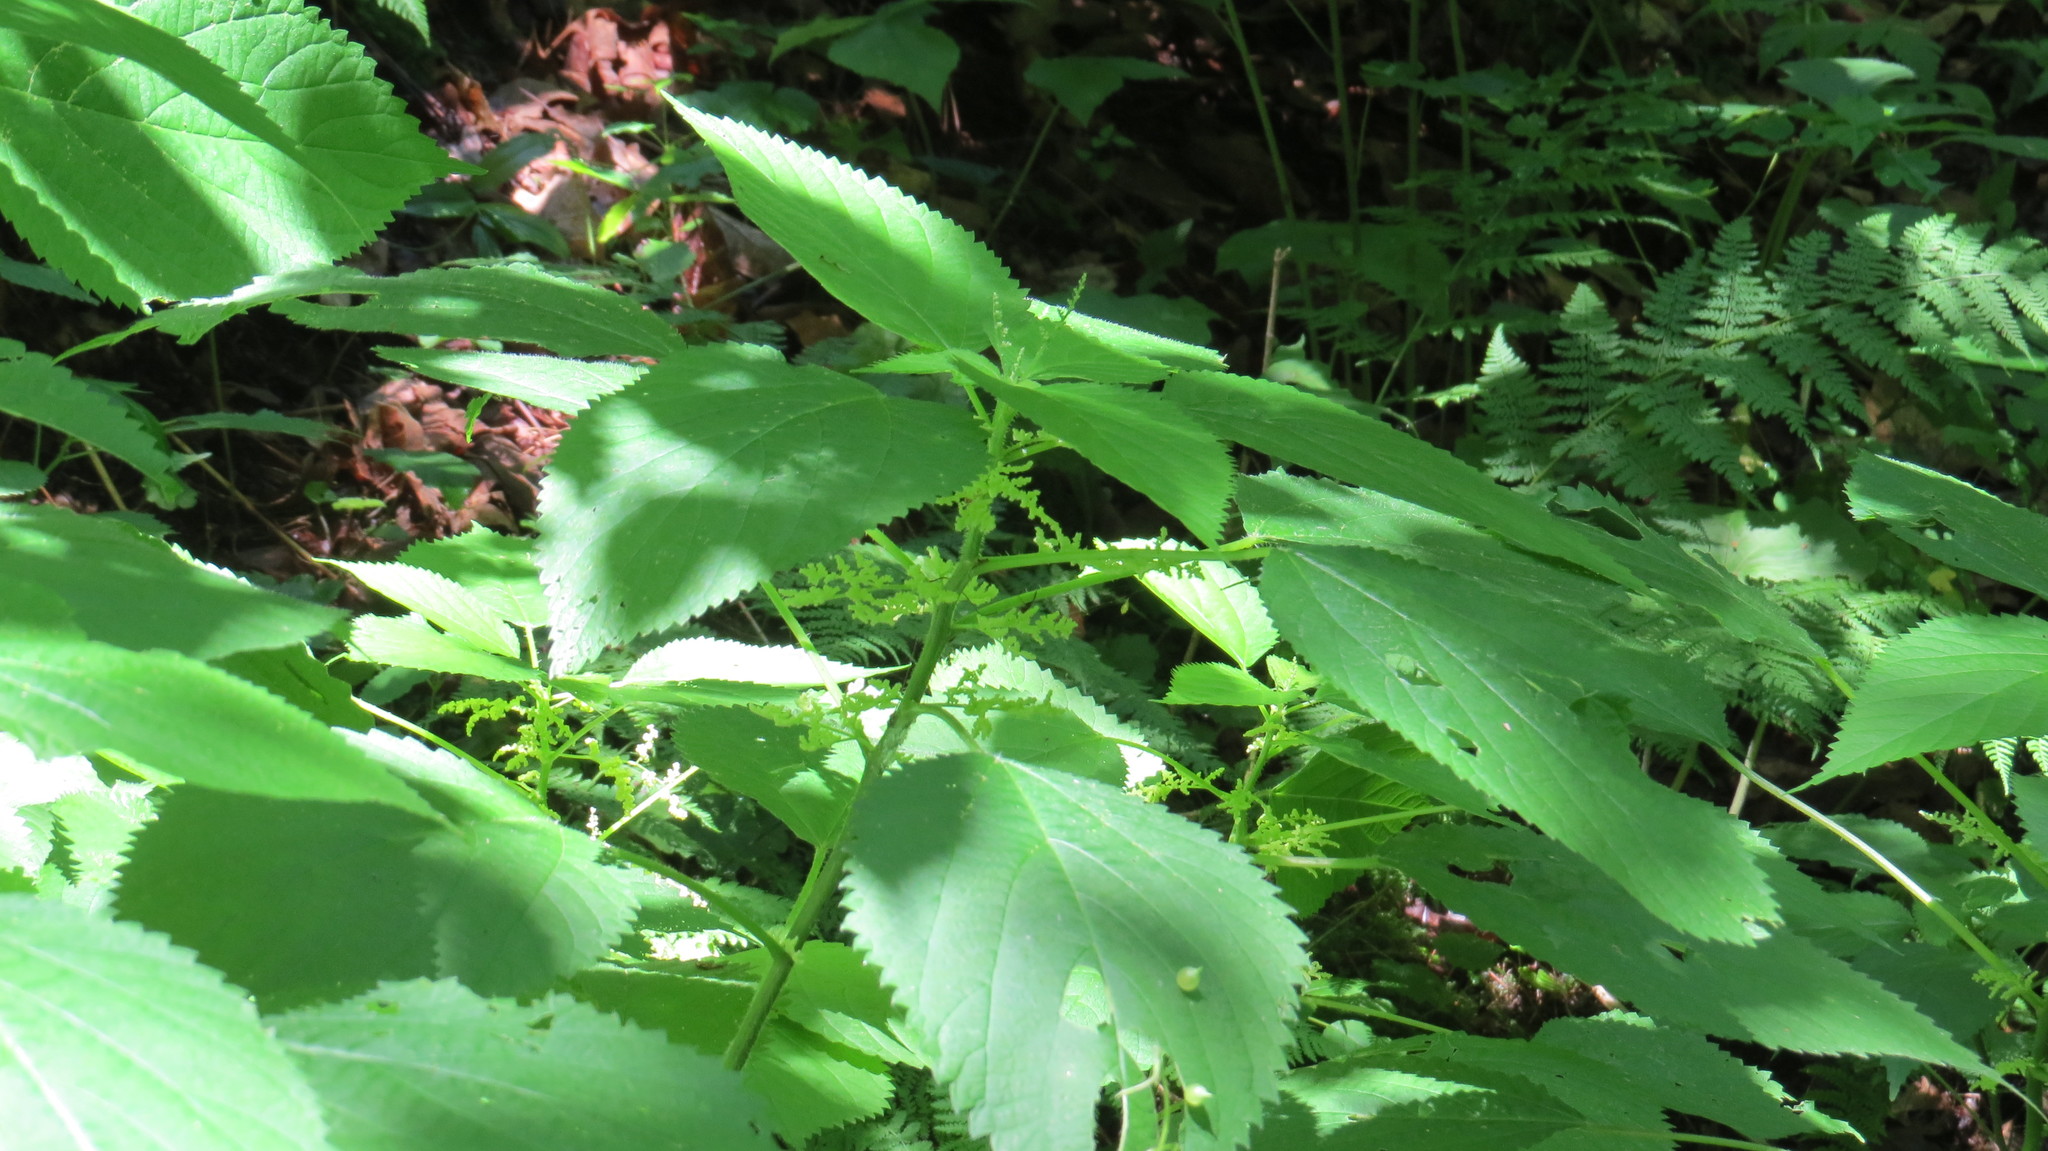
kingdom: Plantae
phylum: Tracheophyta
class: Magnoliopsida
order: Rosales
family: Urticaceae
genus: Laportea
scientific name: Laportea canadensis
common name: Canada nettle
